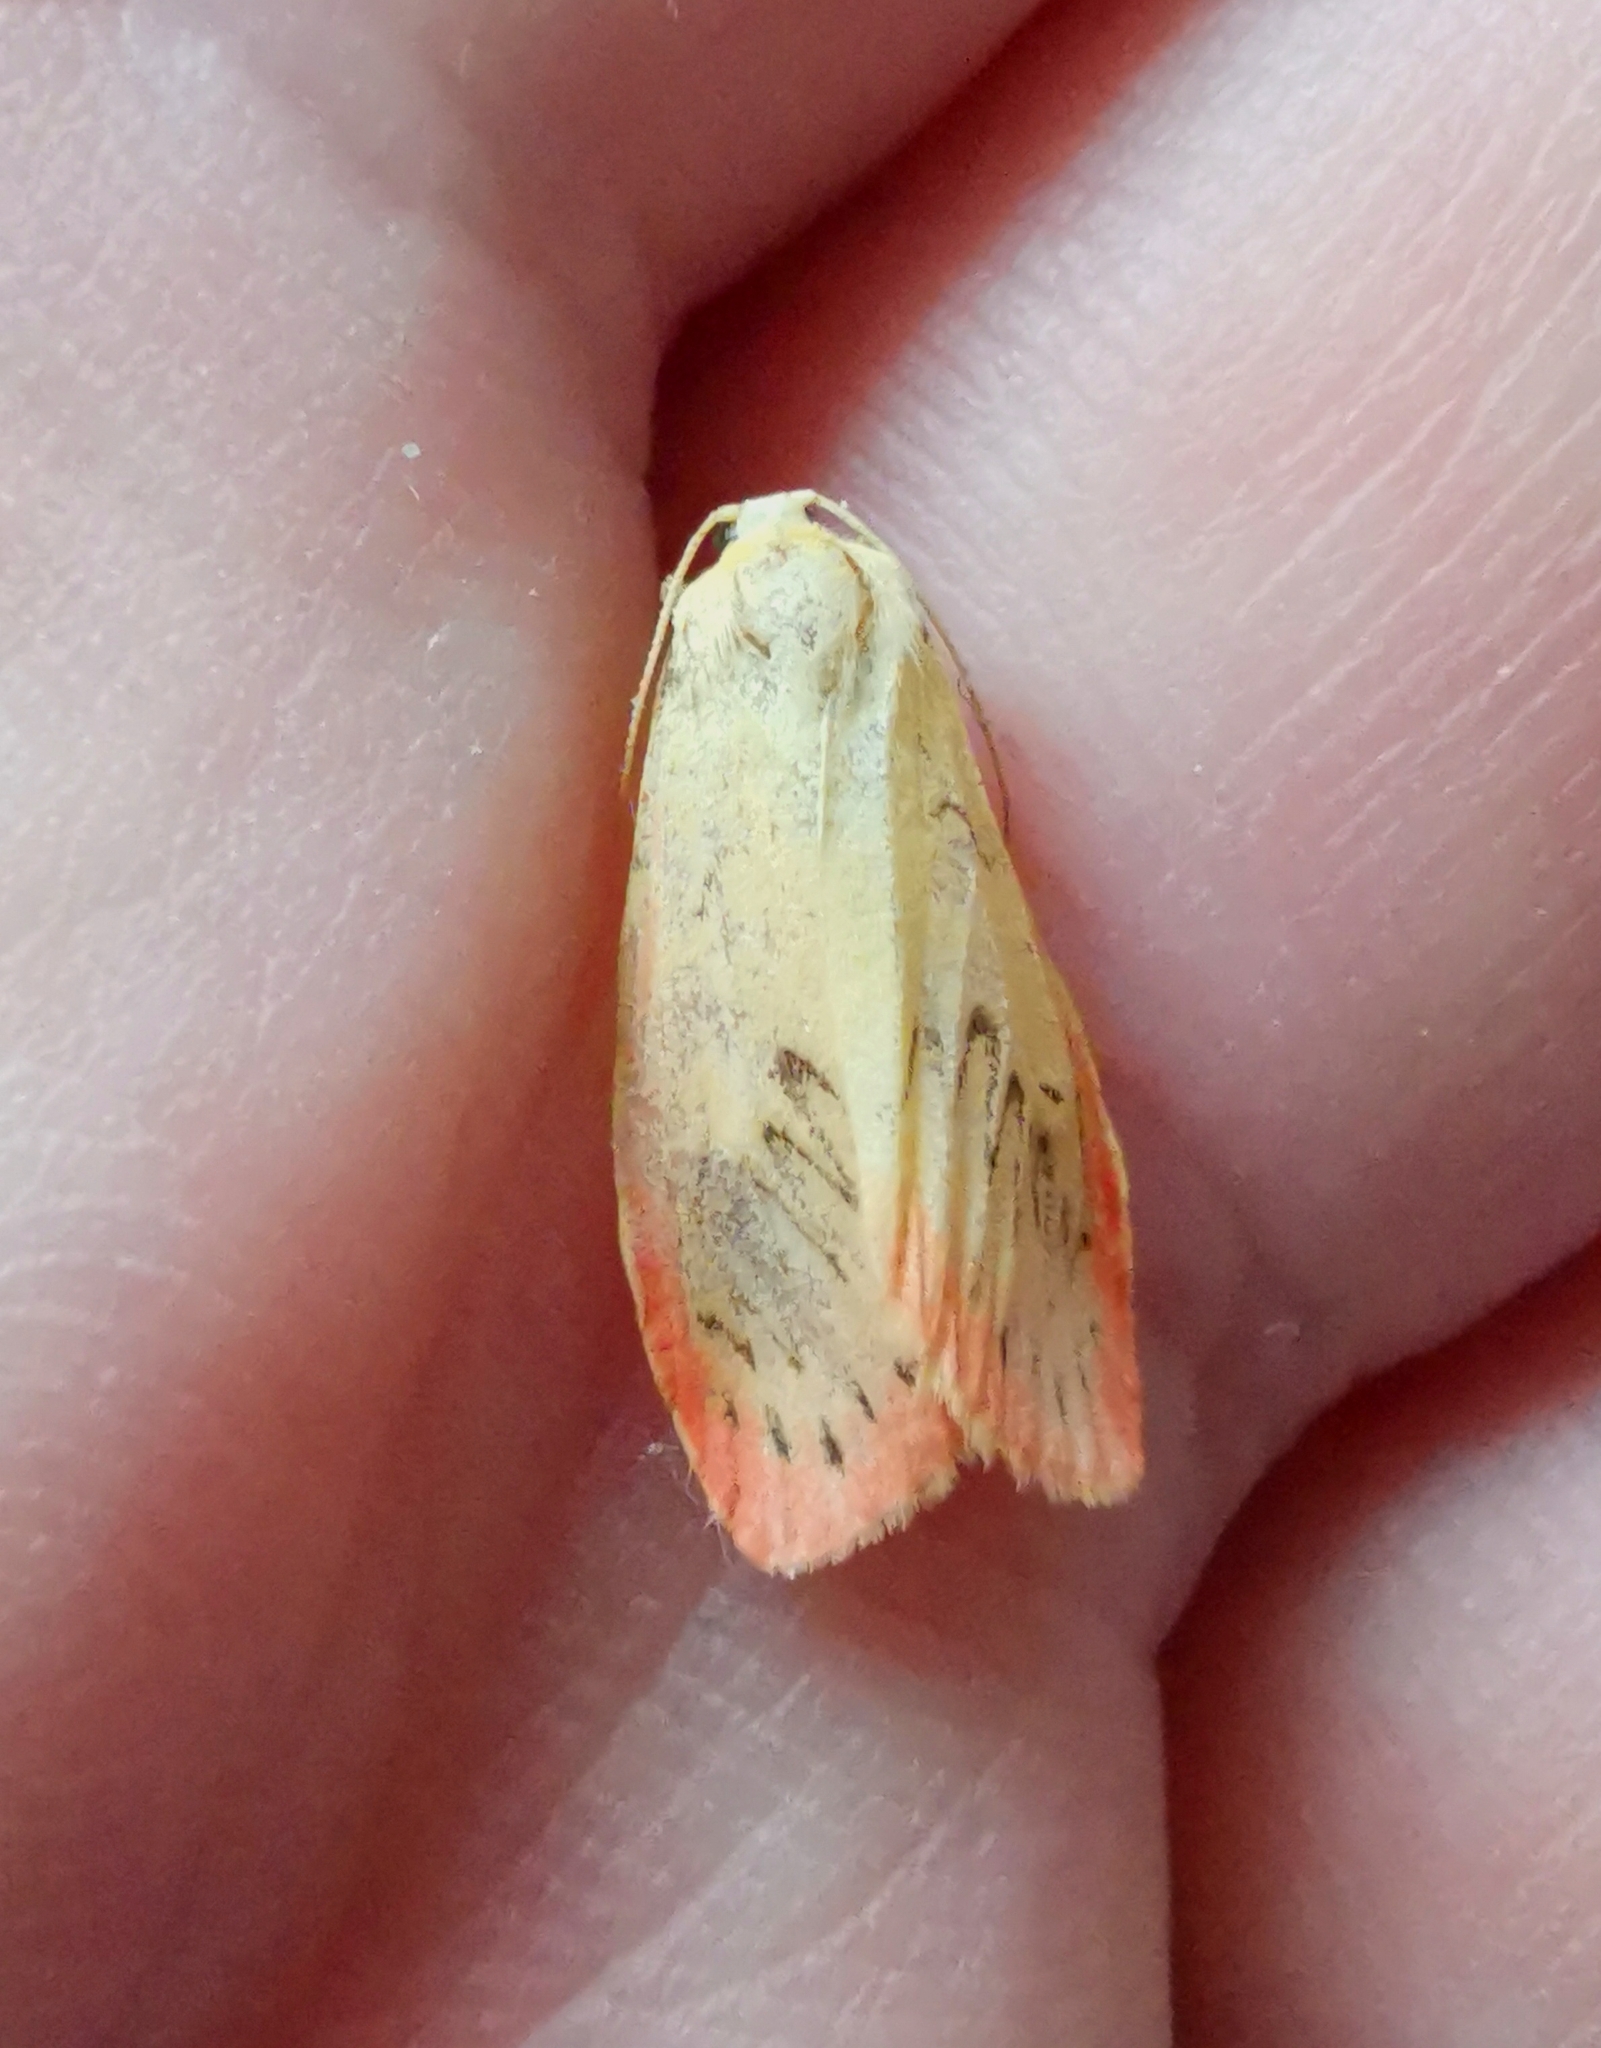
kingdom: Animalia
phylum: Arthropoda
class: Insecta
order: Lepidoptera
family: Erebidae
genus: Miltochrista
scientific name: Miltochrista miniata
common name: Rosy footman
